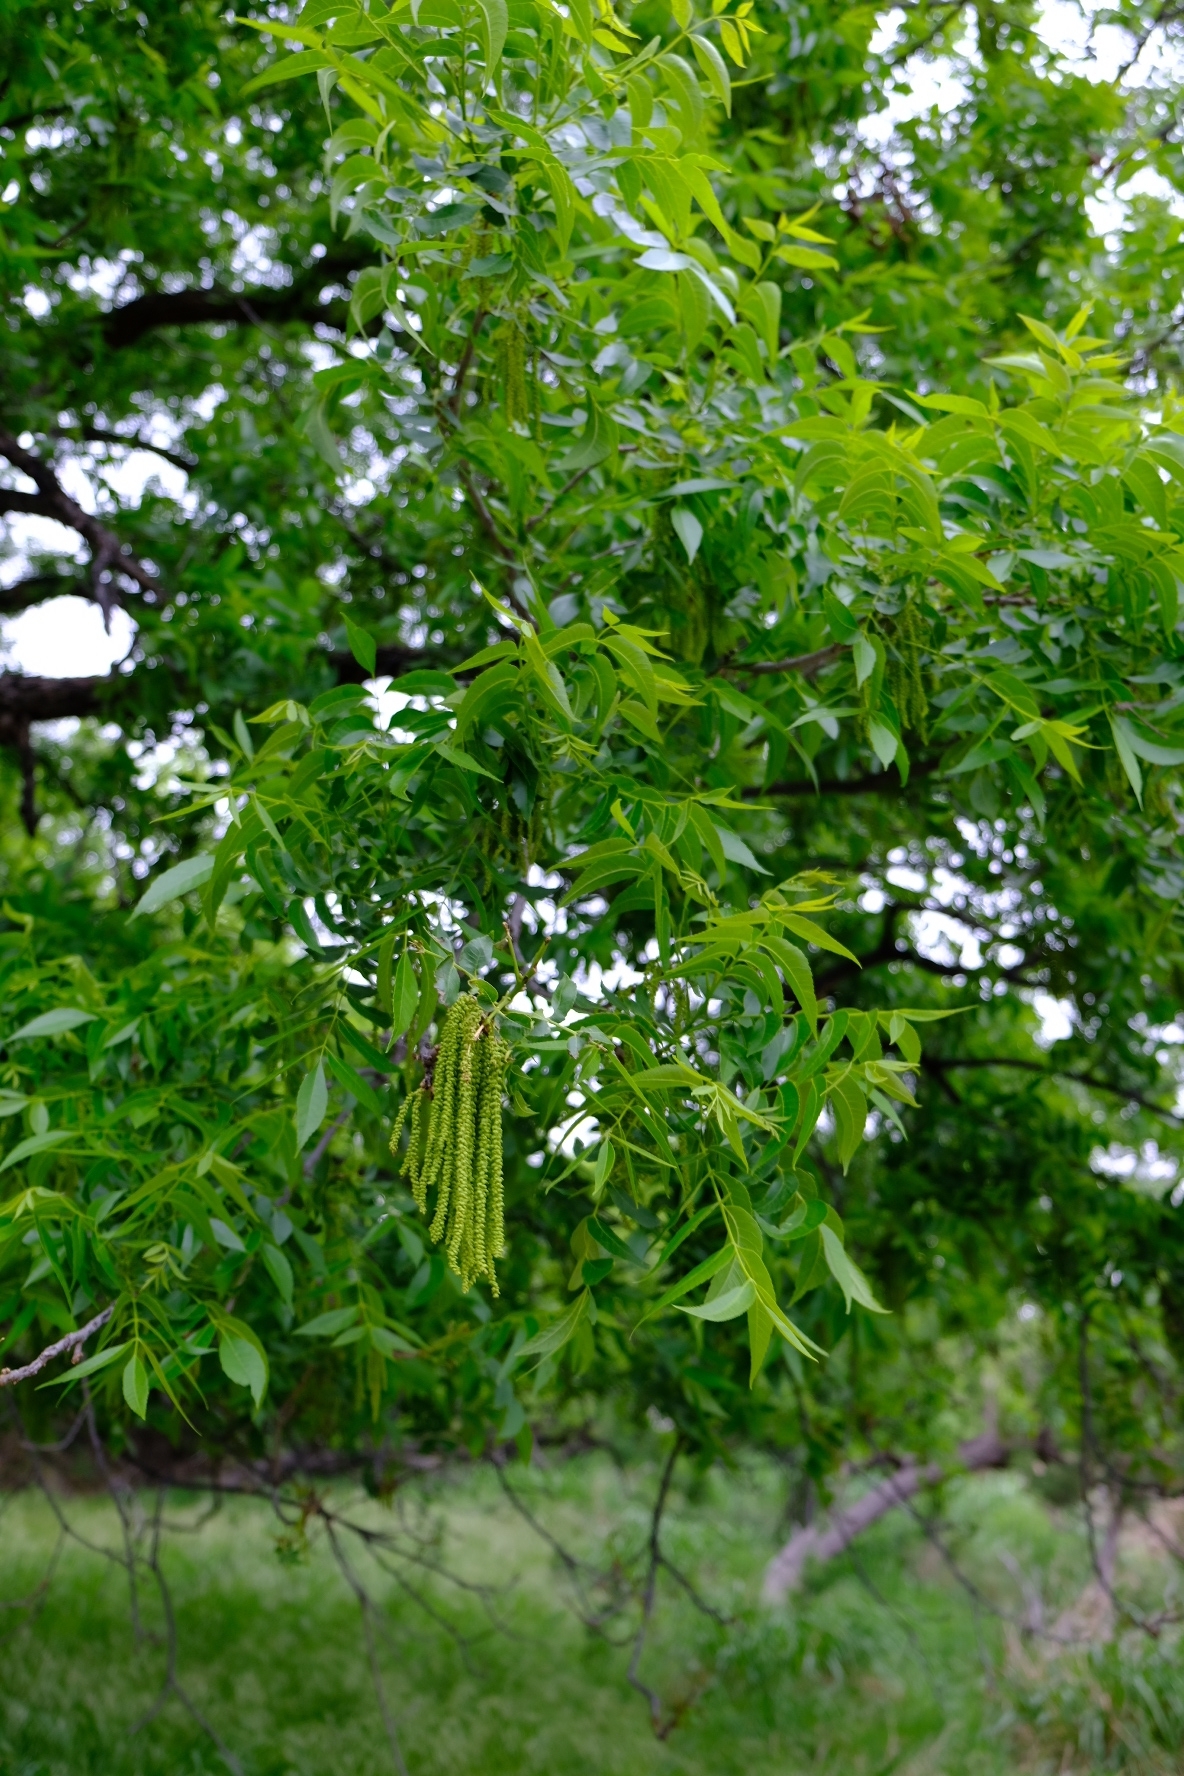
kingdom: Plantae
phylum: Tracheophyta
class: Magnoliopsida
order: Fagales
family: Juglandaceae
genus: Carya
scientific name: Carya illinoinensis
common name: Pecan
